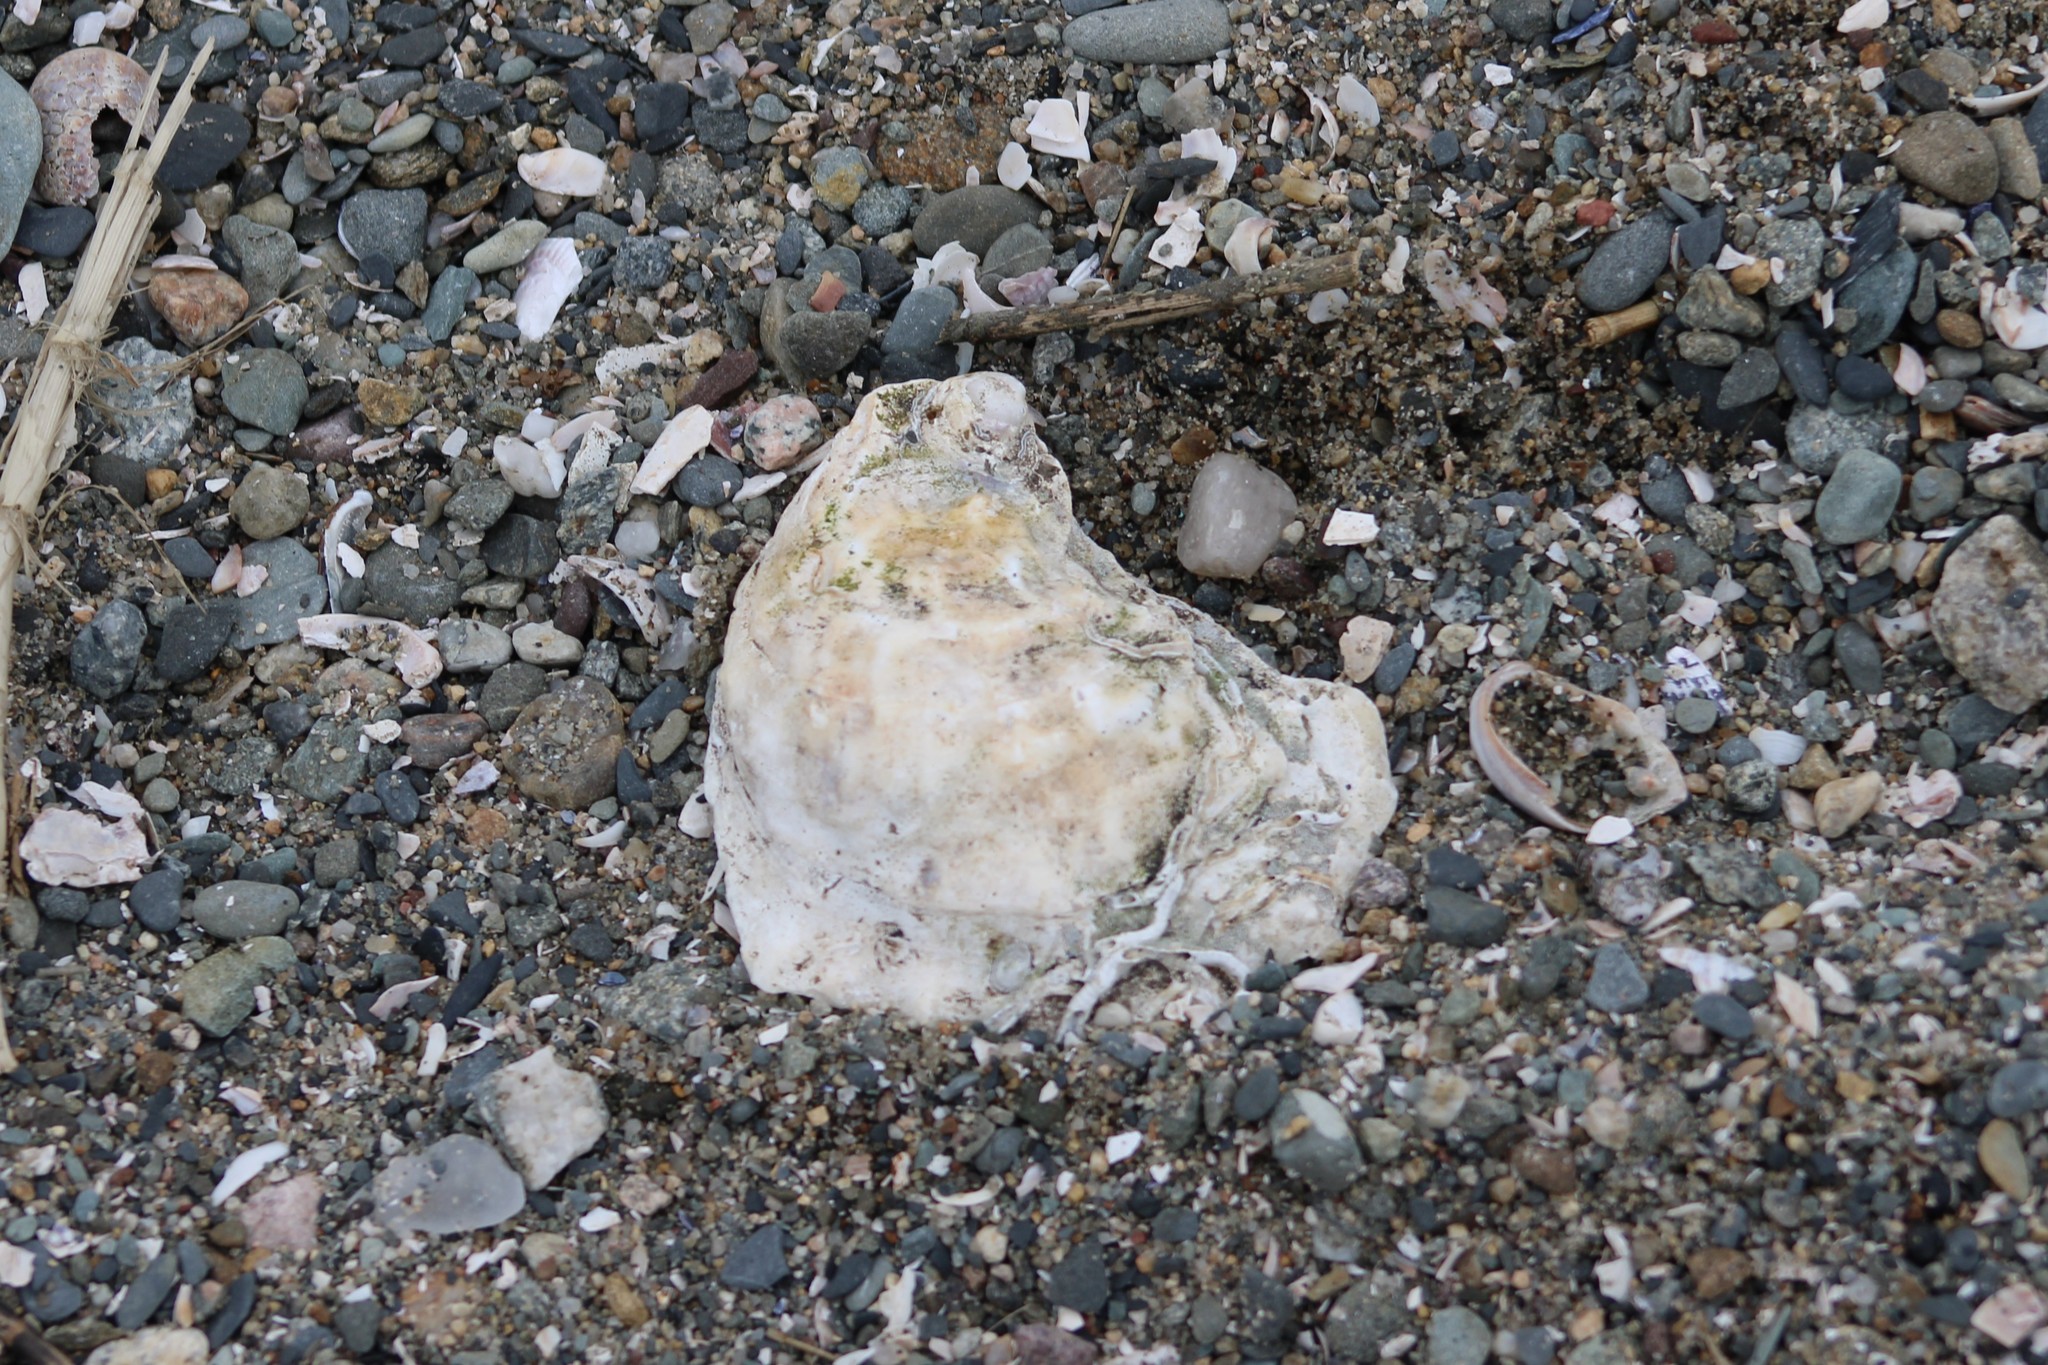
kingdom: Animalia
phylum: Mollusca
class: Bivalvia
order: Ostreida
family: Ostreidae
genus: Crassostrea
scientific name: Crassostrea virginica
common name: American oyster
